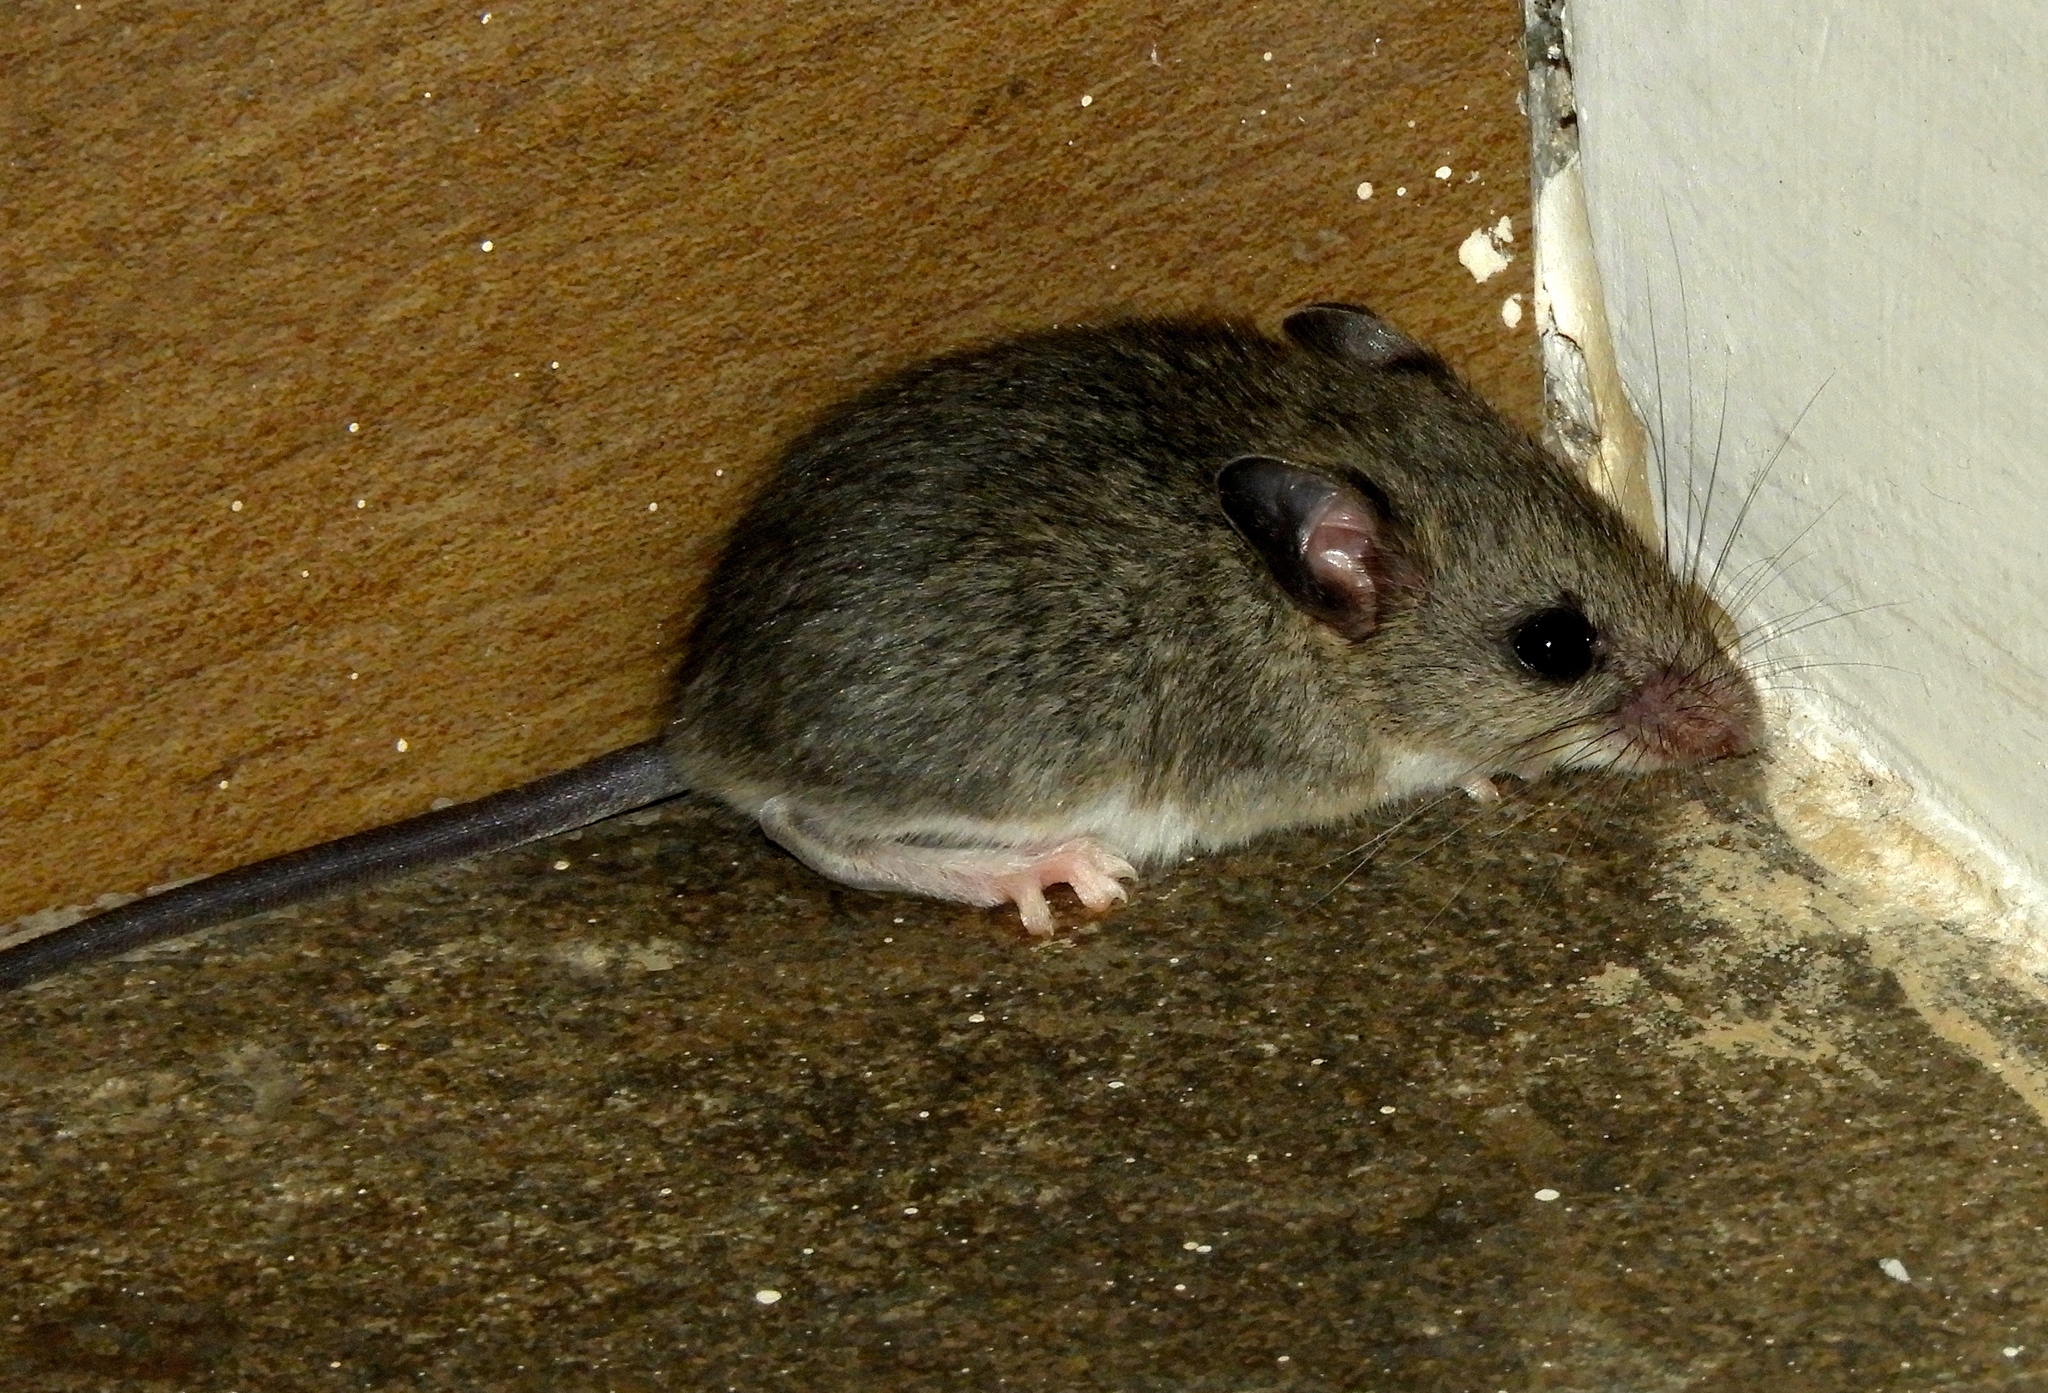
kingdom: Animalia
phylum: Chordata
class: Mammalia
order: Rodentia
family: Cricetidae
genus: Peromyscus
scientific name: Peromyscus
